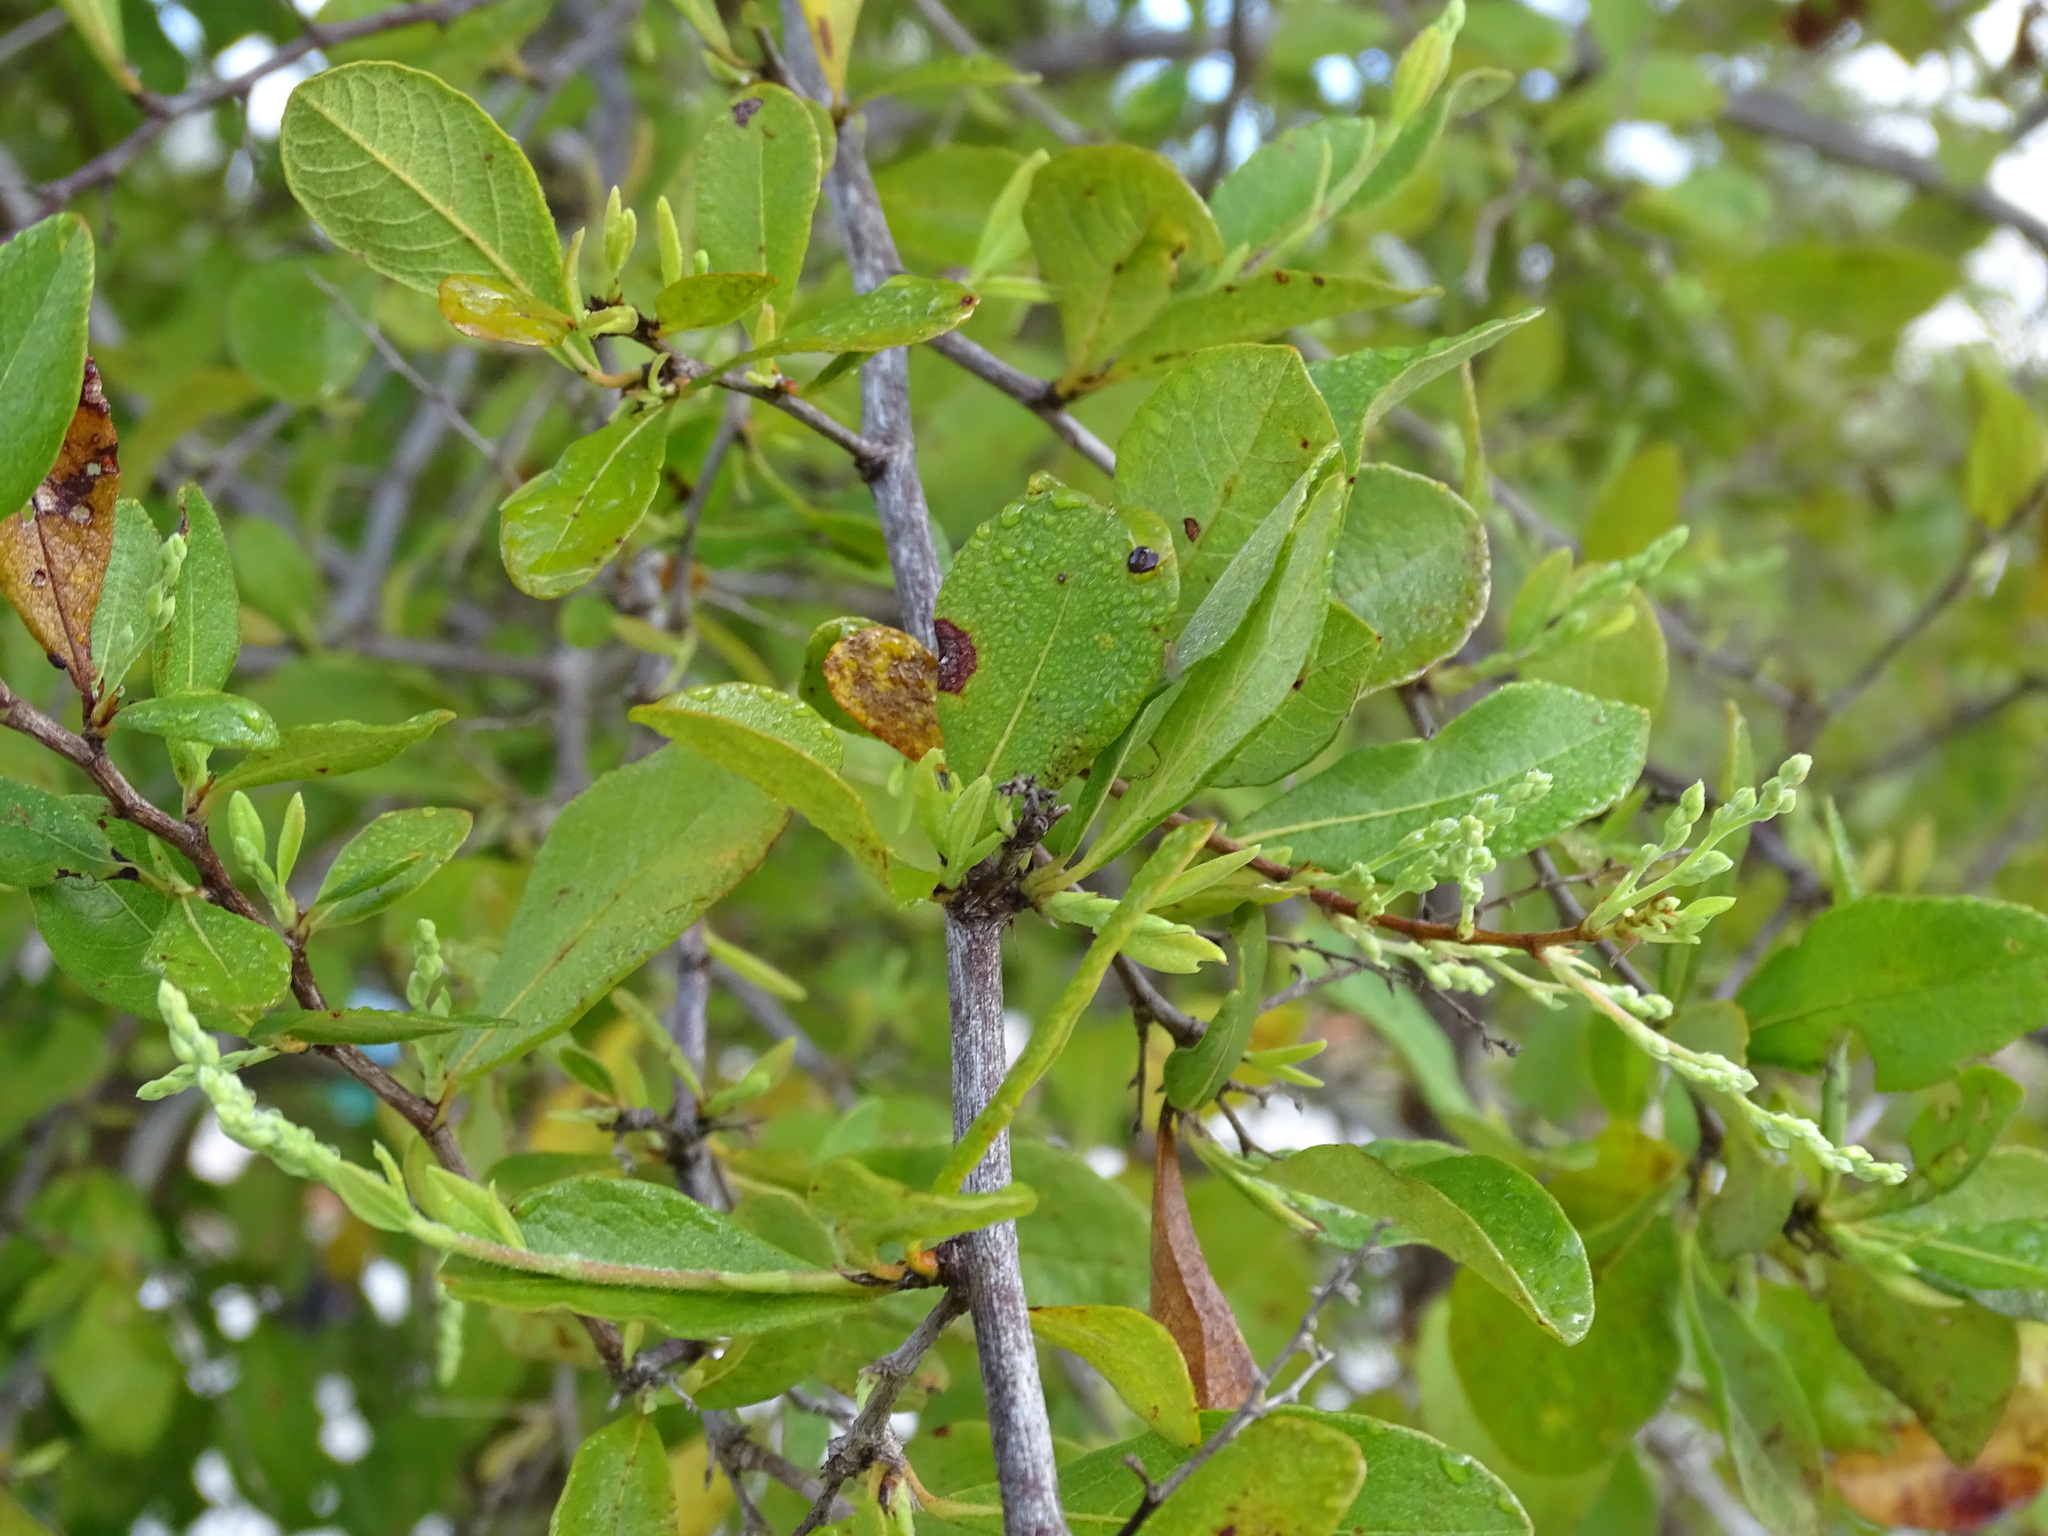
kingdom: Plantae
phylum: Tracheophyta
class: Magnoliopsida
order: Caryophyllales
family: Polygonaceae
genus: Gymnopodium
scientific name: Gymnopodium floribundum
